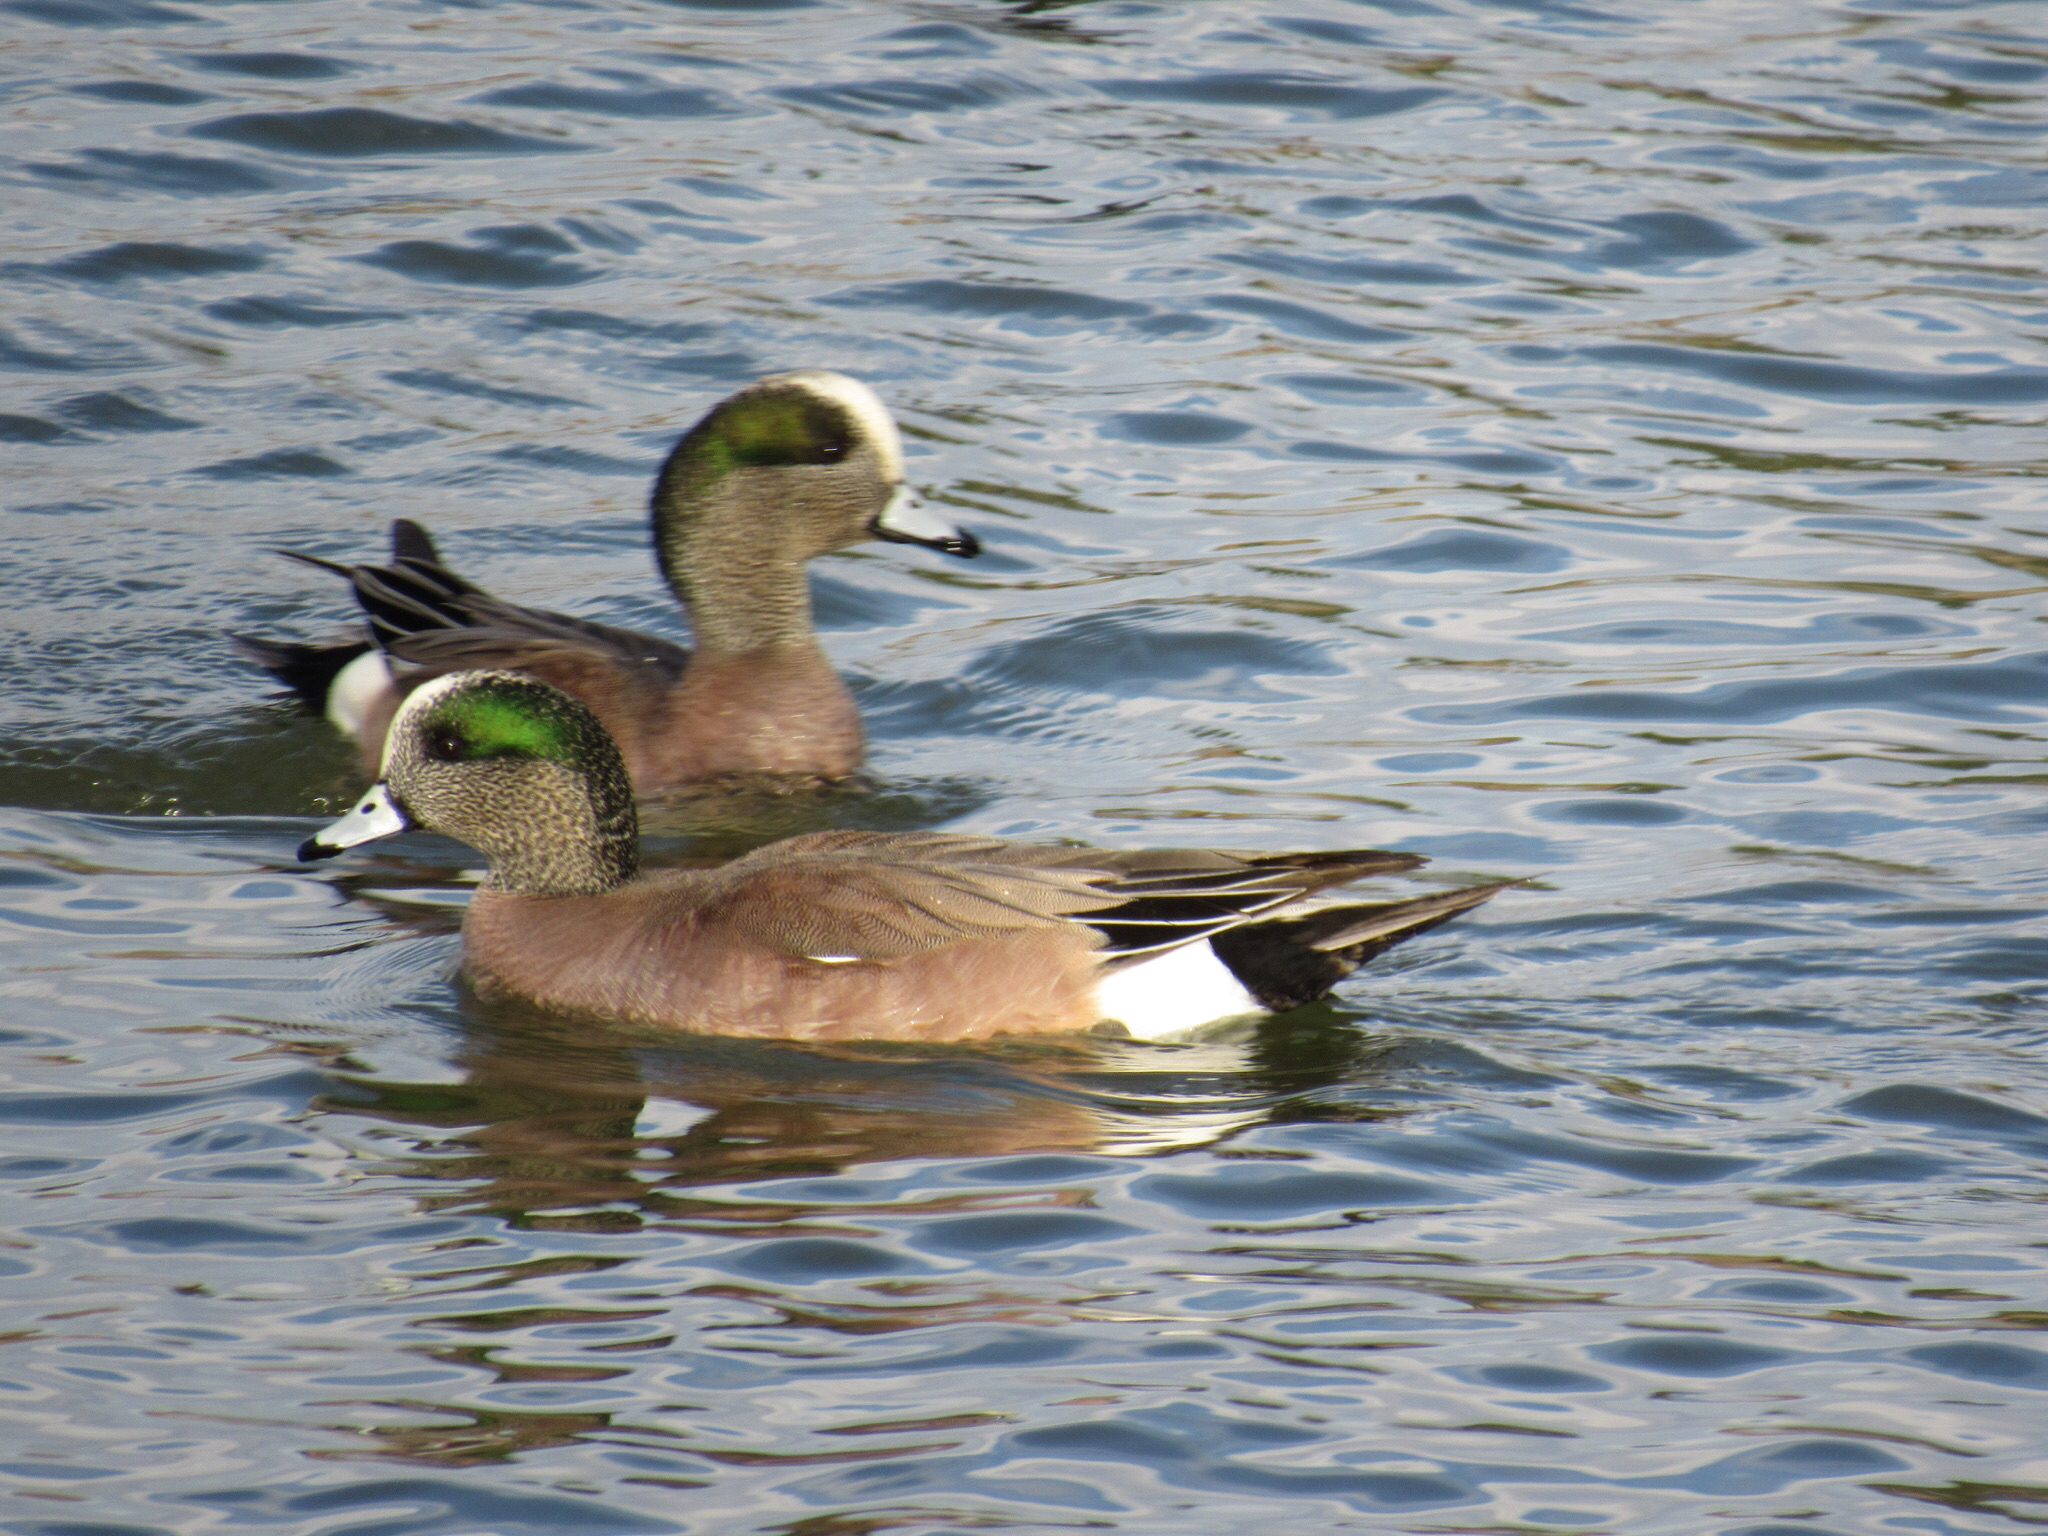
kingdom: Animalia
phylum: Chordata
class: Aves
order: Anseriformes
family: Anatidae
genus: Mareca
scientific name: Mareca americana
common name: American wigeon
